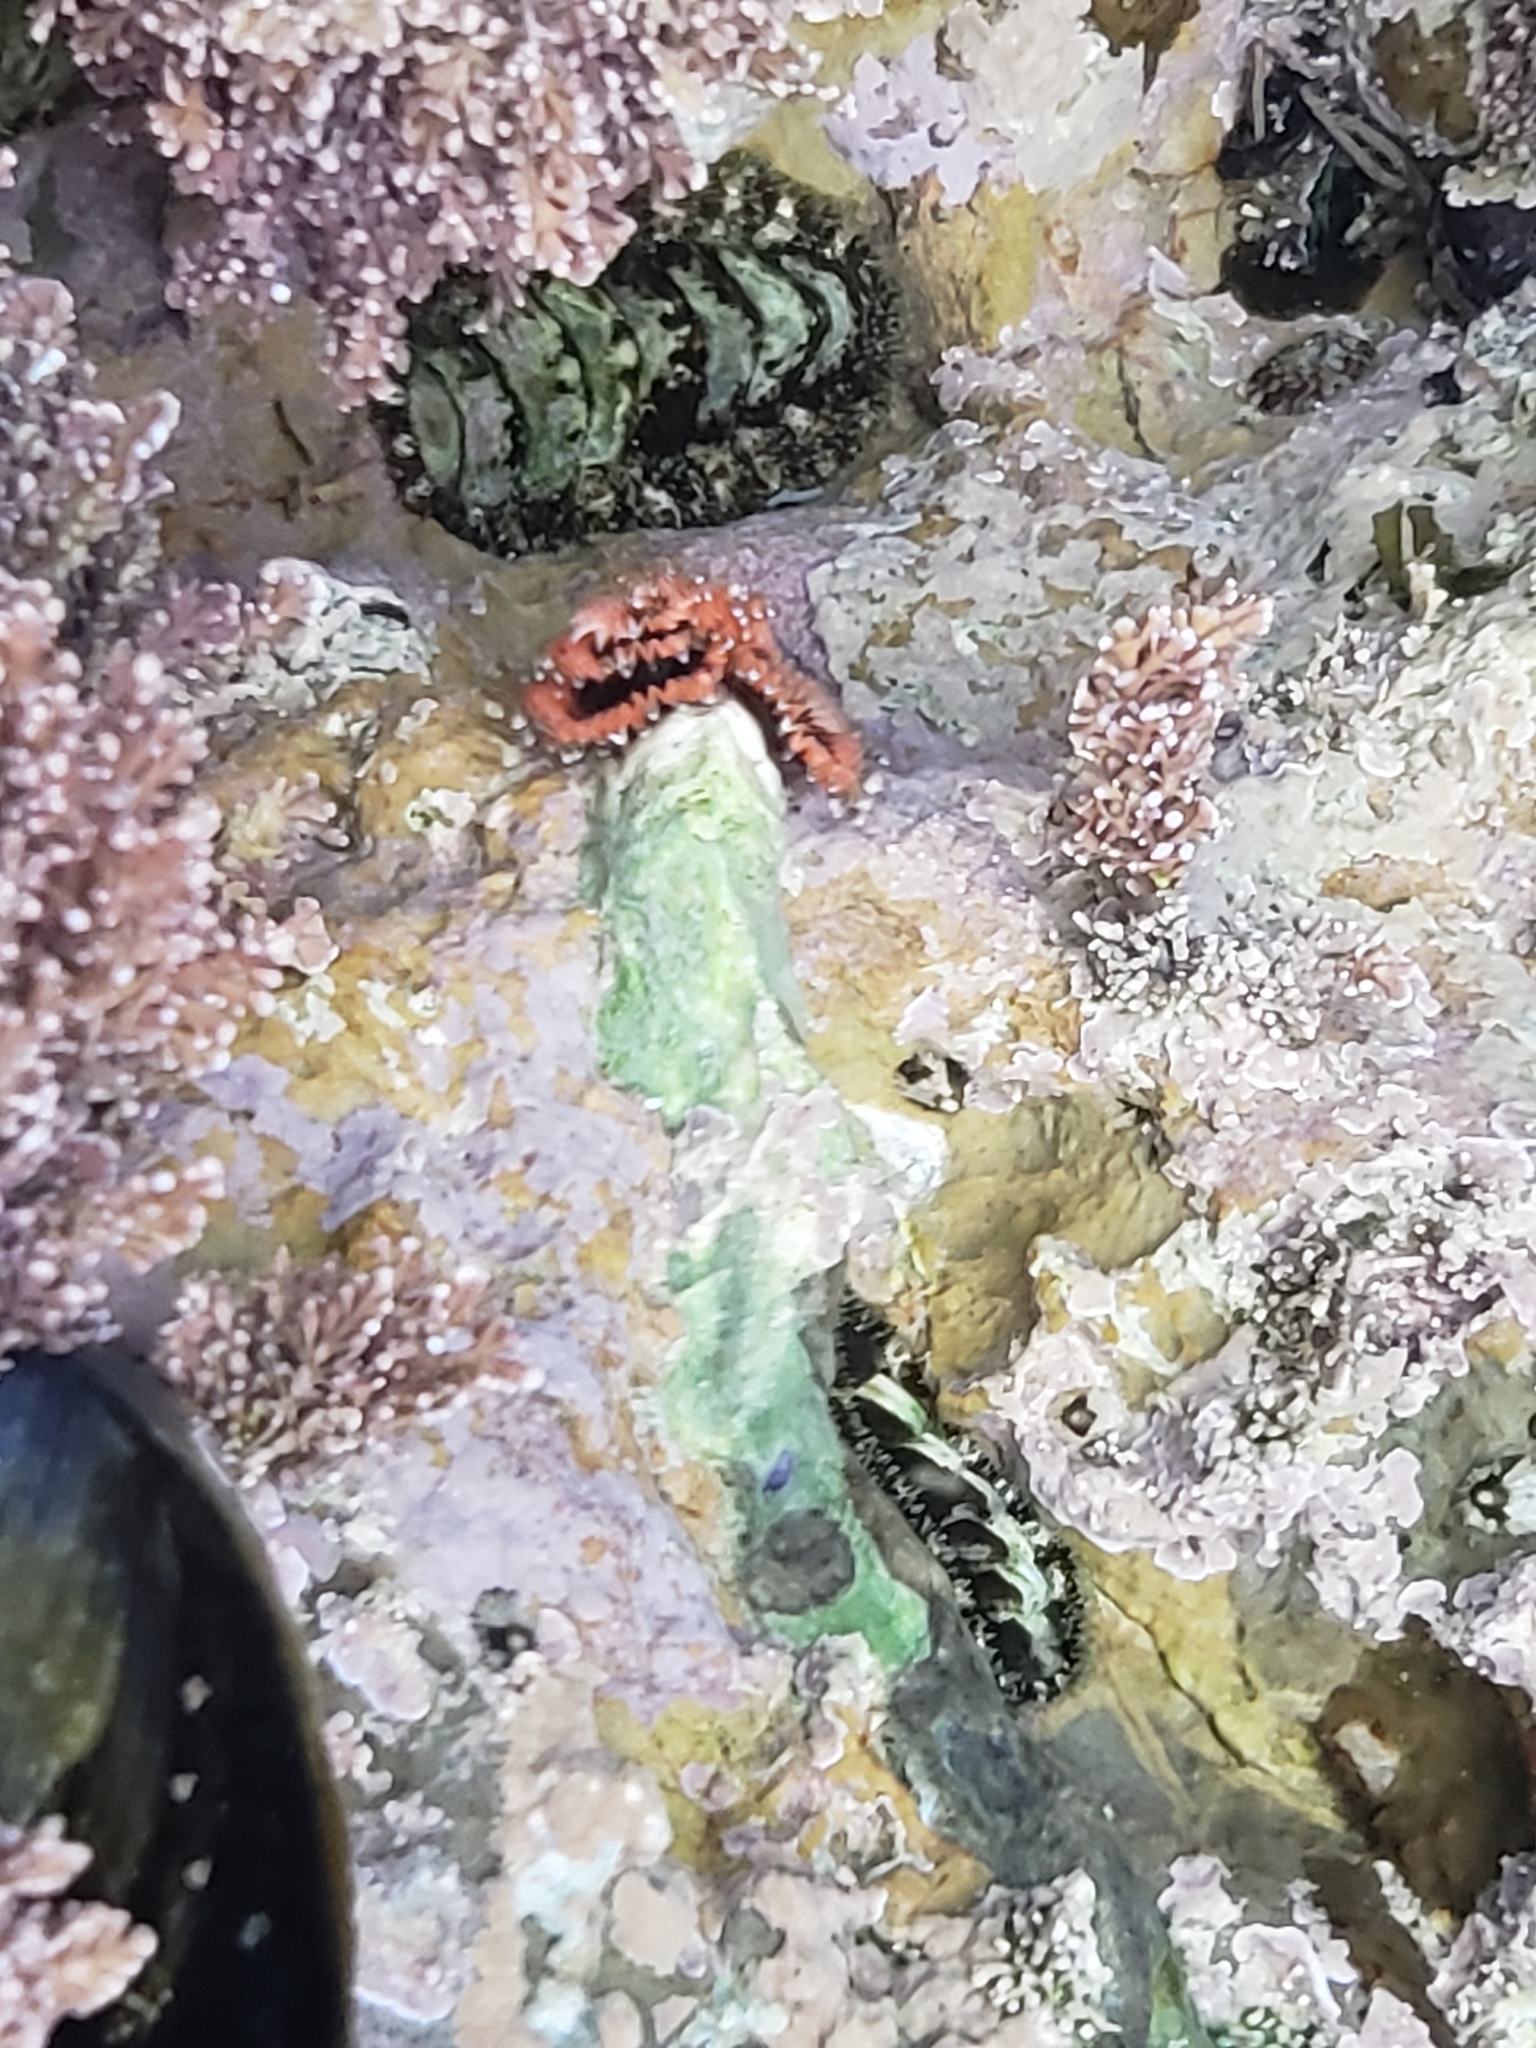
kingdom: Animalia
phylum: Annelida
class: Polychaeta
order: Sabellida
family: Serpulidae
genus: Spirobranchus
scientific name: Spirobranchus spinosus
